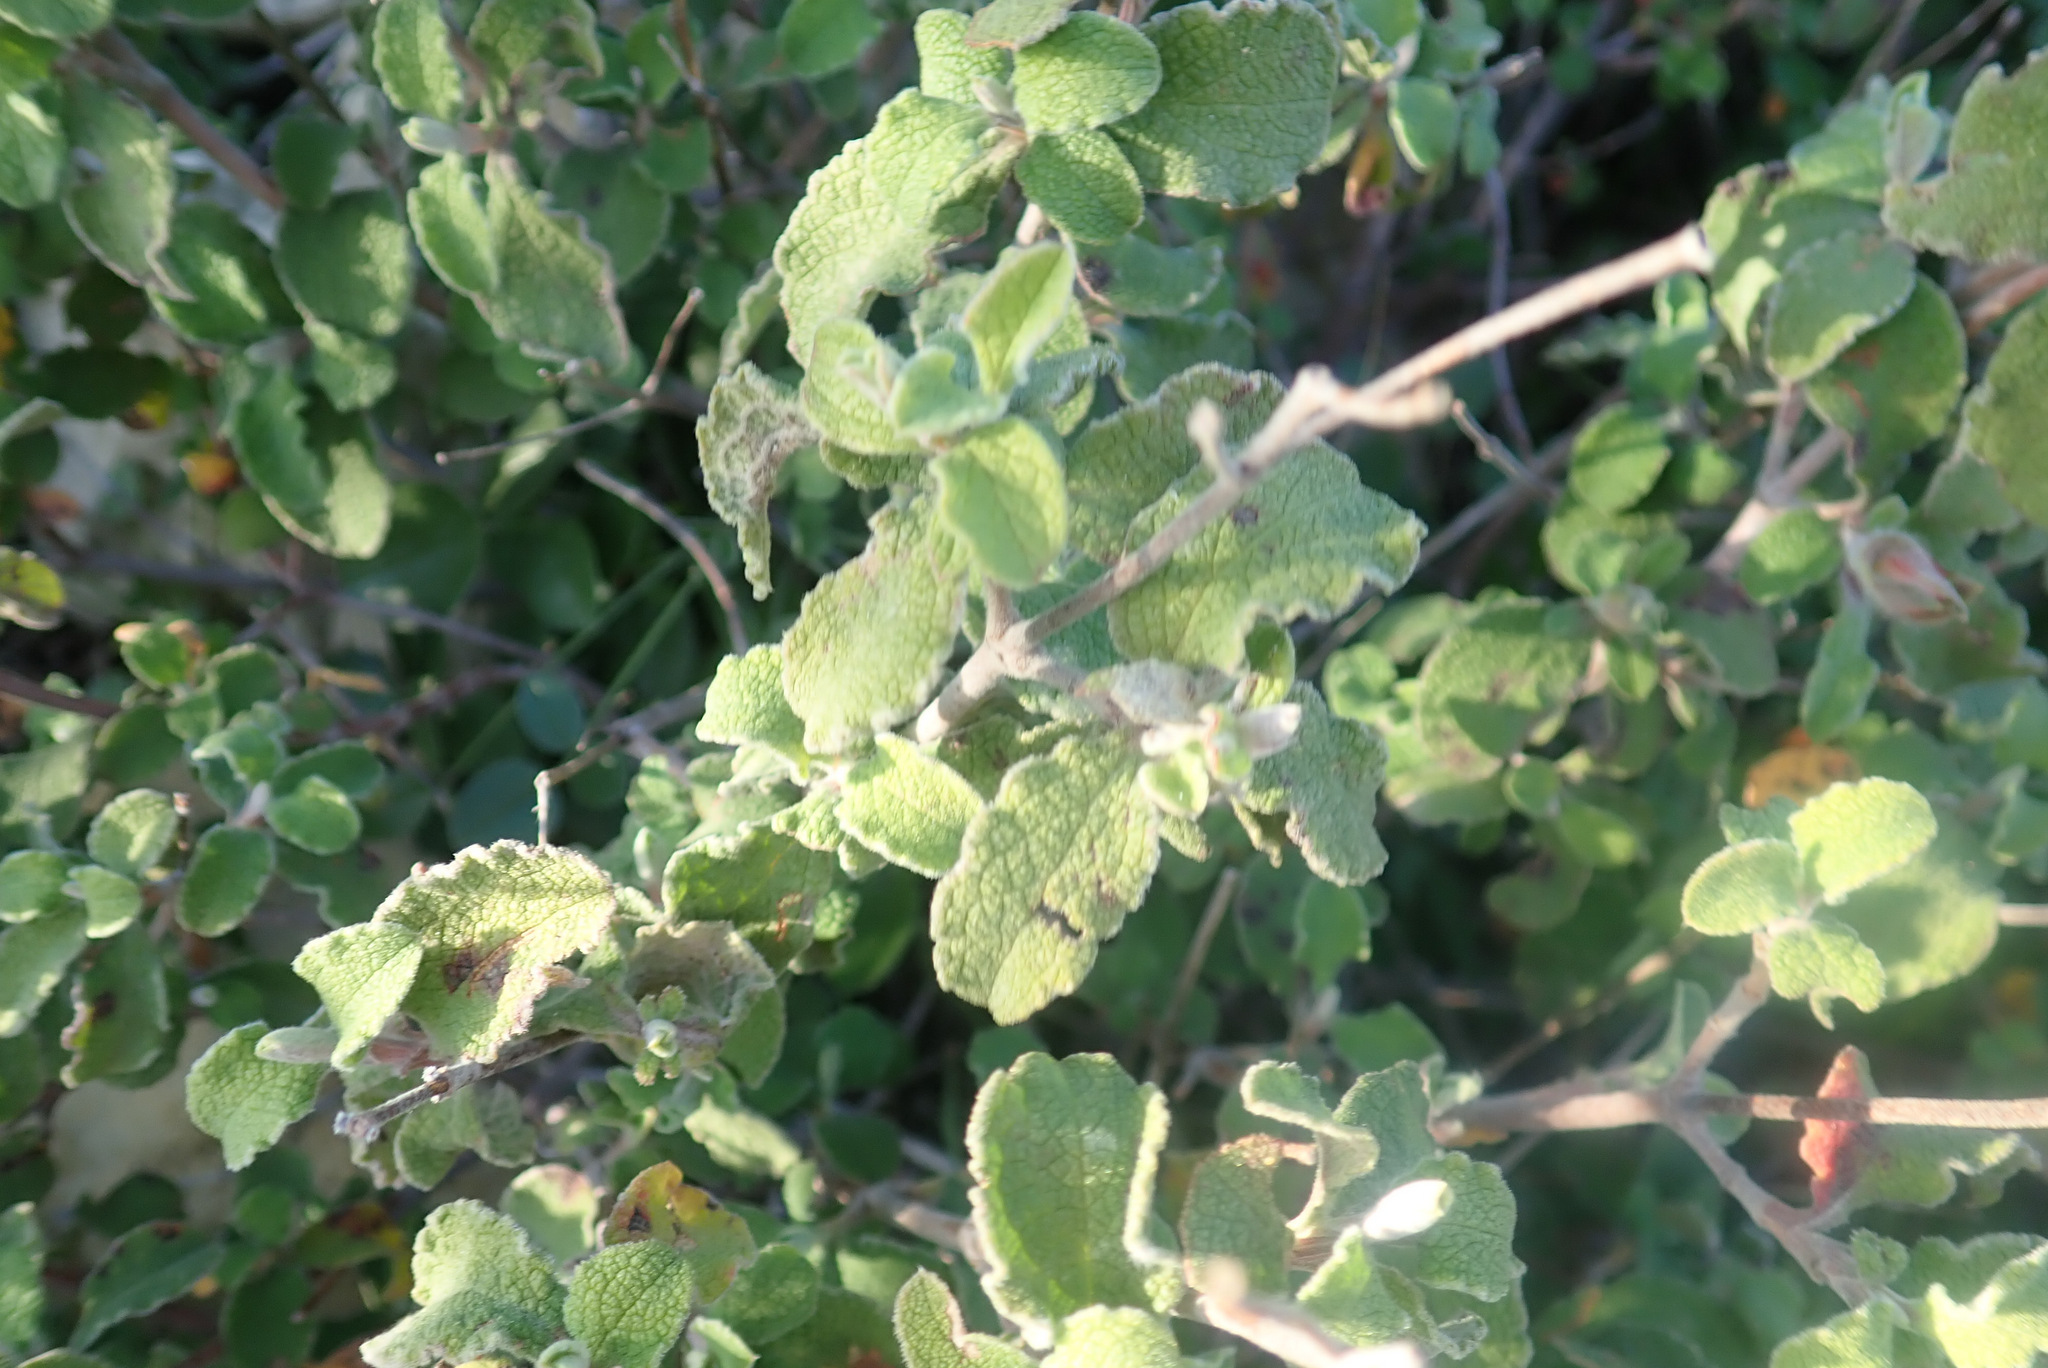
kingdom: Plantae
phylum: Tracheophyta
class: Magnoliopsida
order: Malvales
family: Cistaceae
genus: Cistus
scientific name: Cistus creticus
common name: Cretan rockrose
